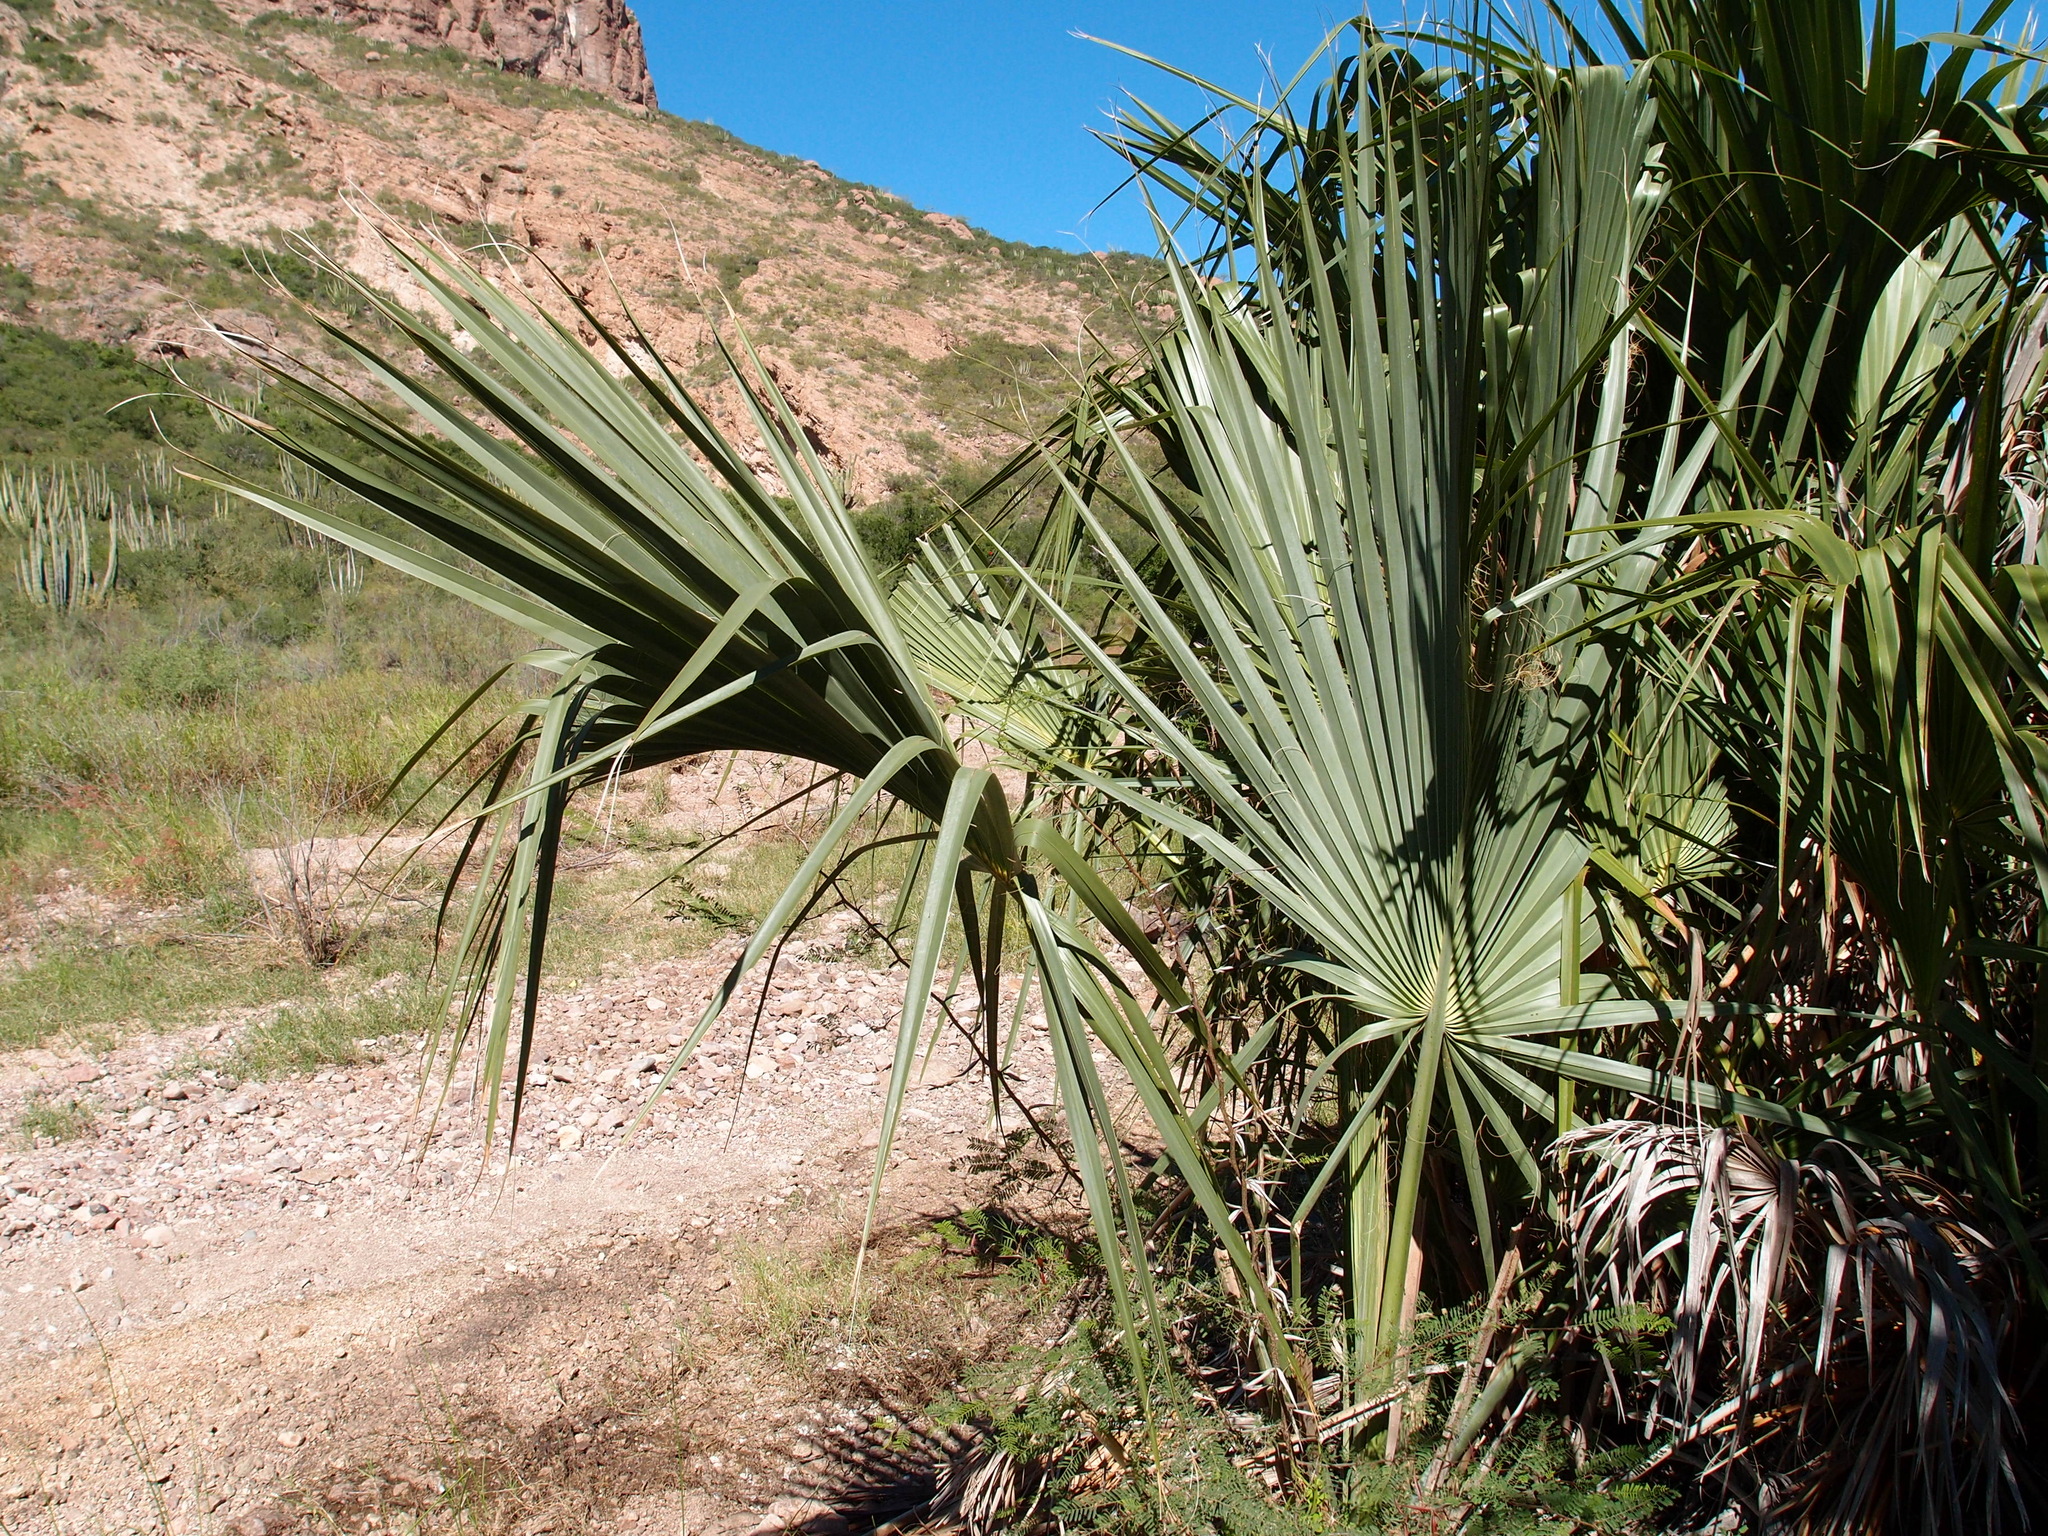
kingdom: Plantae
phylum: Tracheophyta
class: Liliopsida
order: Arecales
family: Arecaceae
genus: Sabal
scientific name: Sabal uresana
